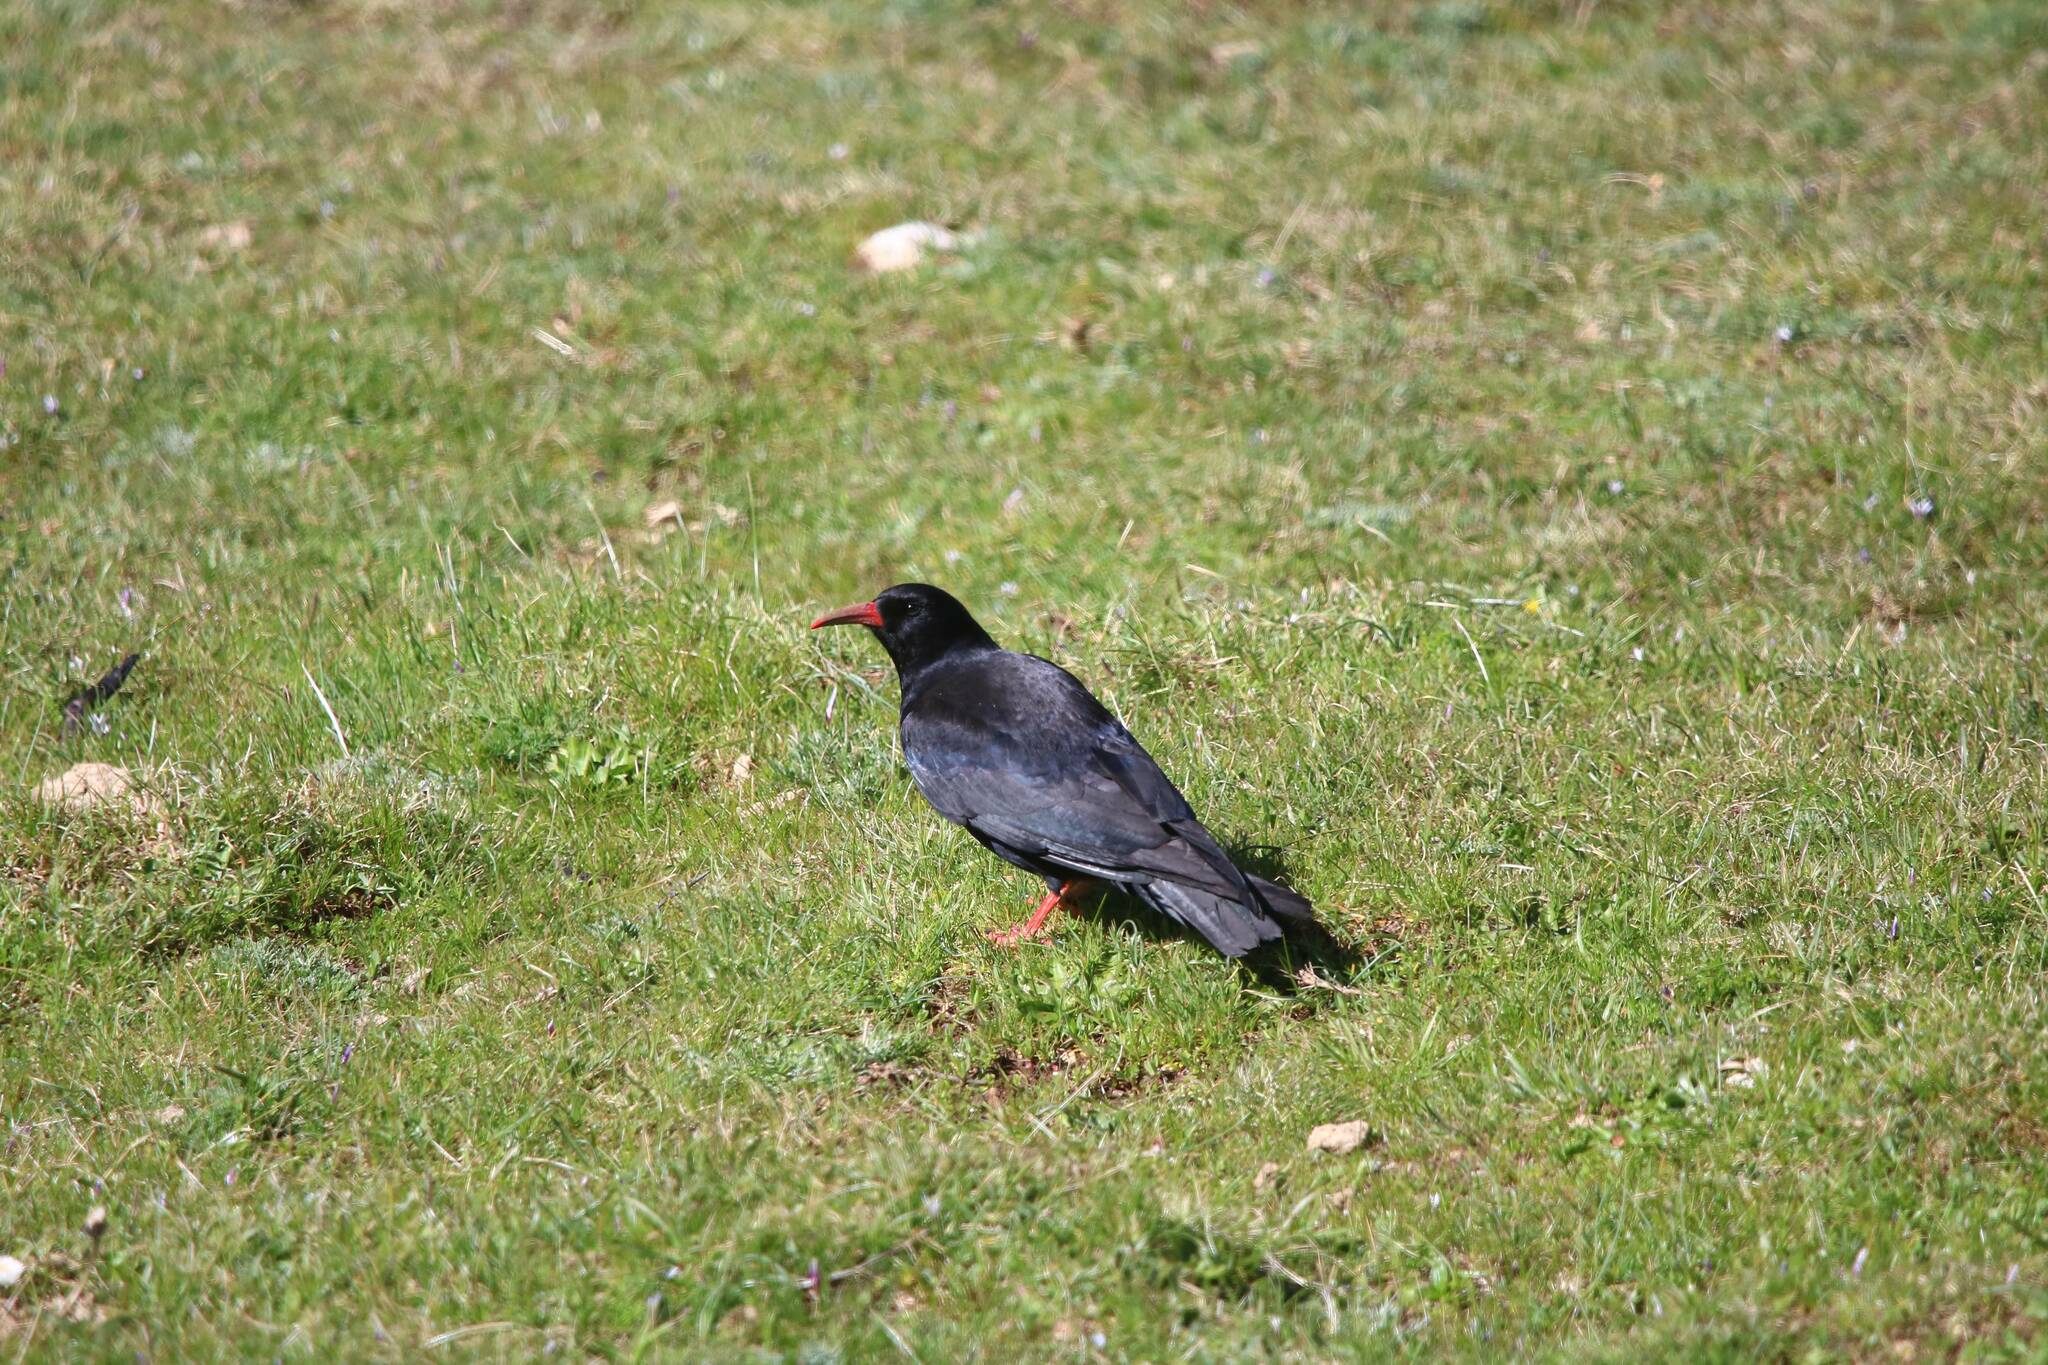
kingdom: Animalia
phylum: Chordata
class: Aves
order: Passeriformes
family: Corvidae
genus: Pyrrhocorax
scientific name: Pyrrhocorax pyrrhocorax
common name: Red-billed chough
